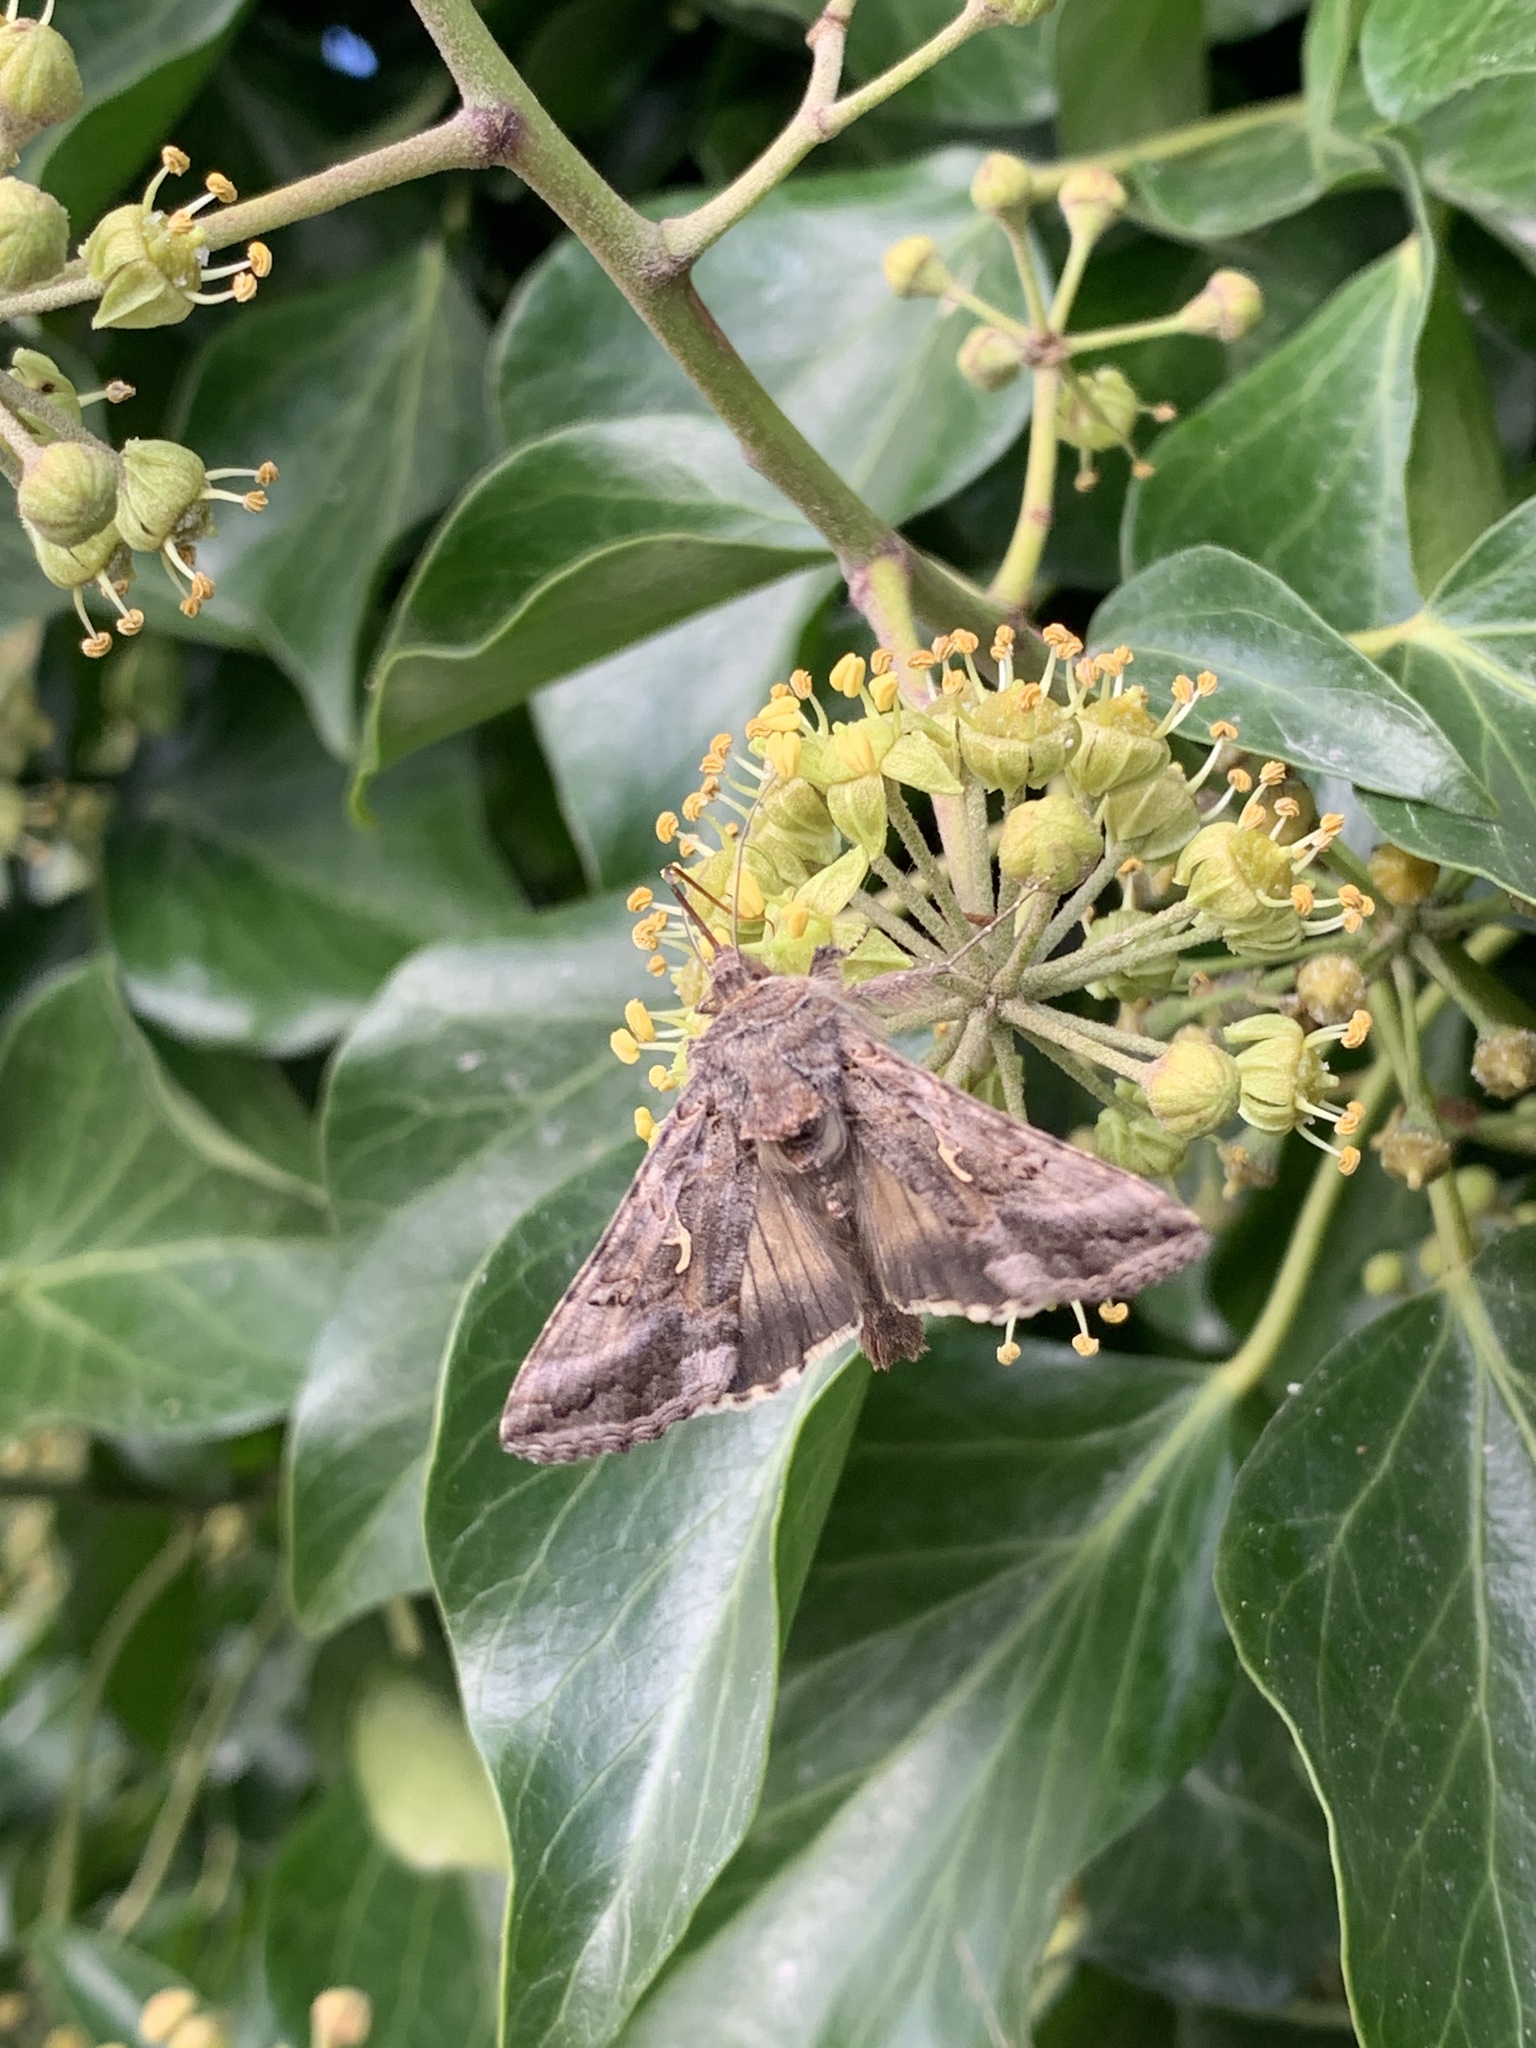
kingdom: Animalia
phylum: Arthropoda
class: Insecta
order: Lepidoptera
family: Noctuidae
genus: Autographa
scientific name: Autographa gamma
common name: Silver y
